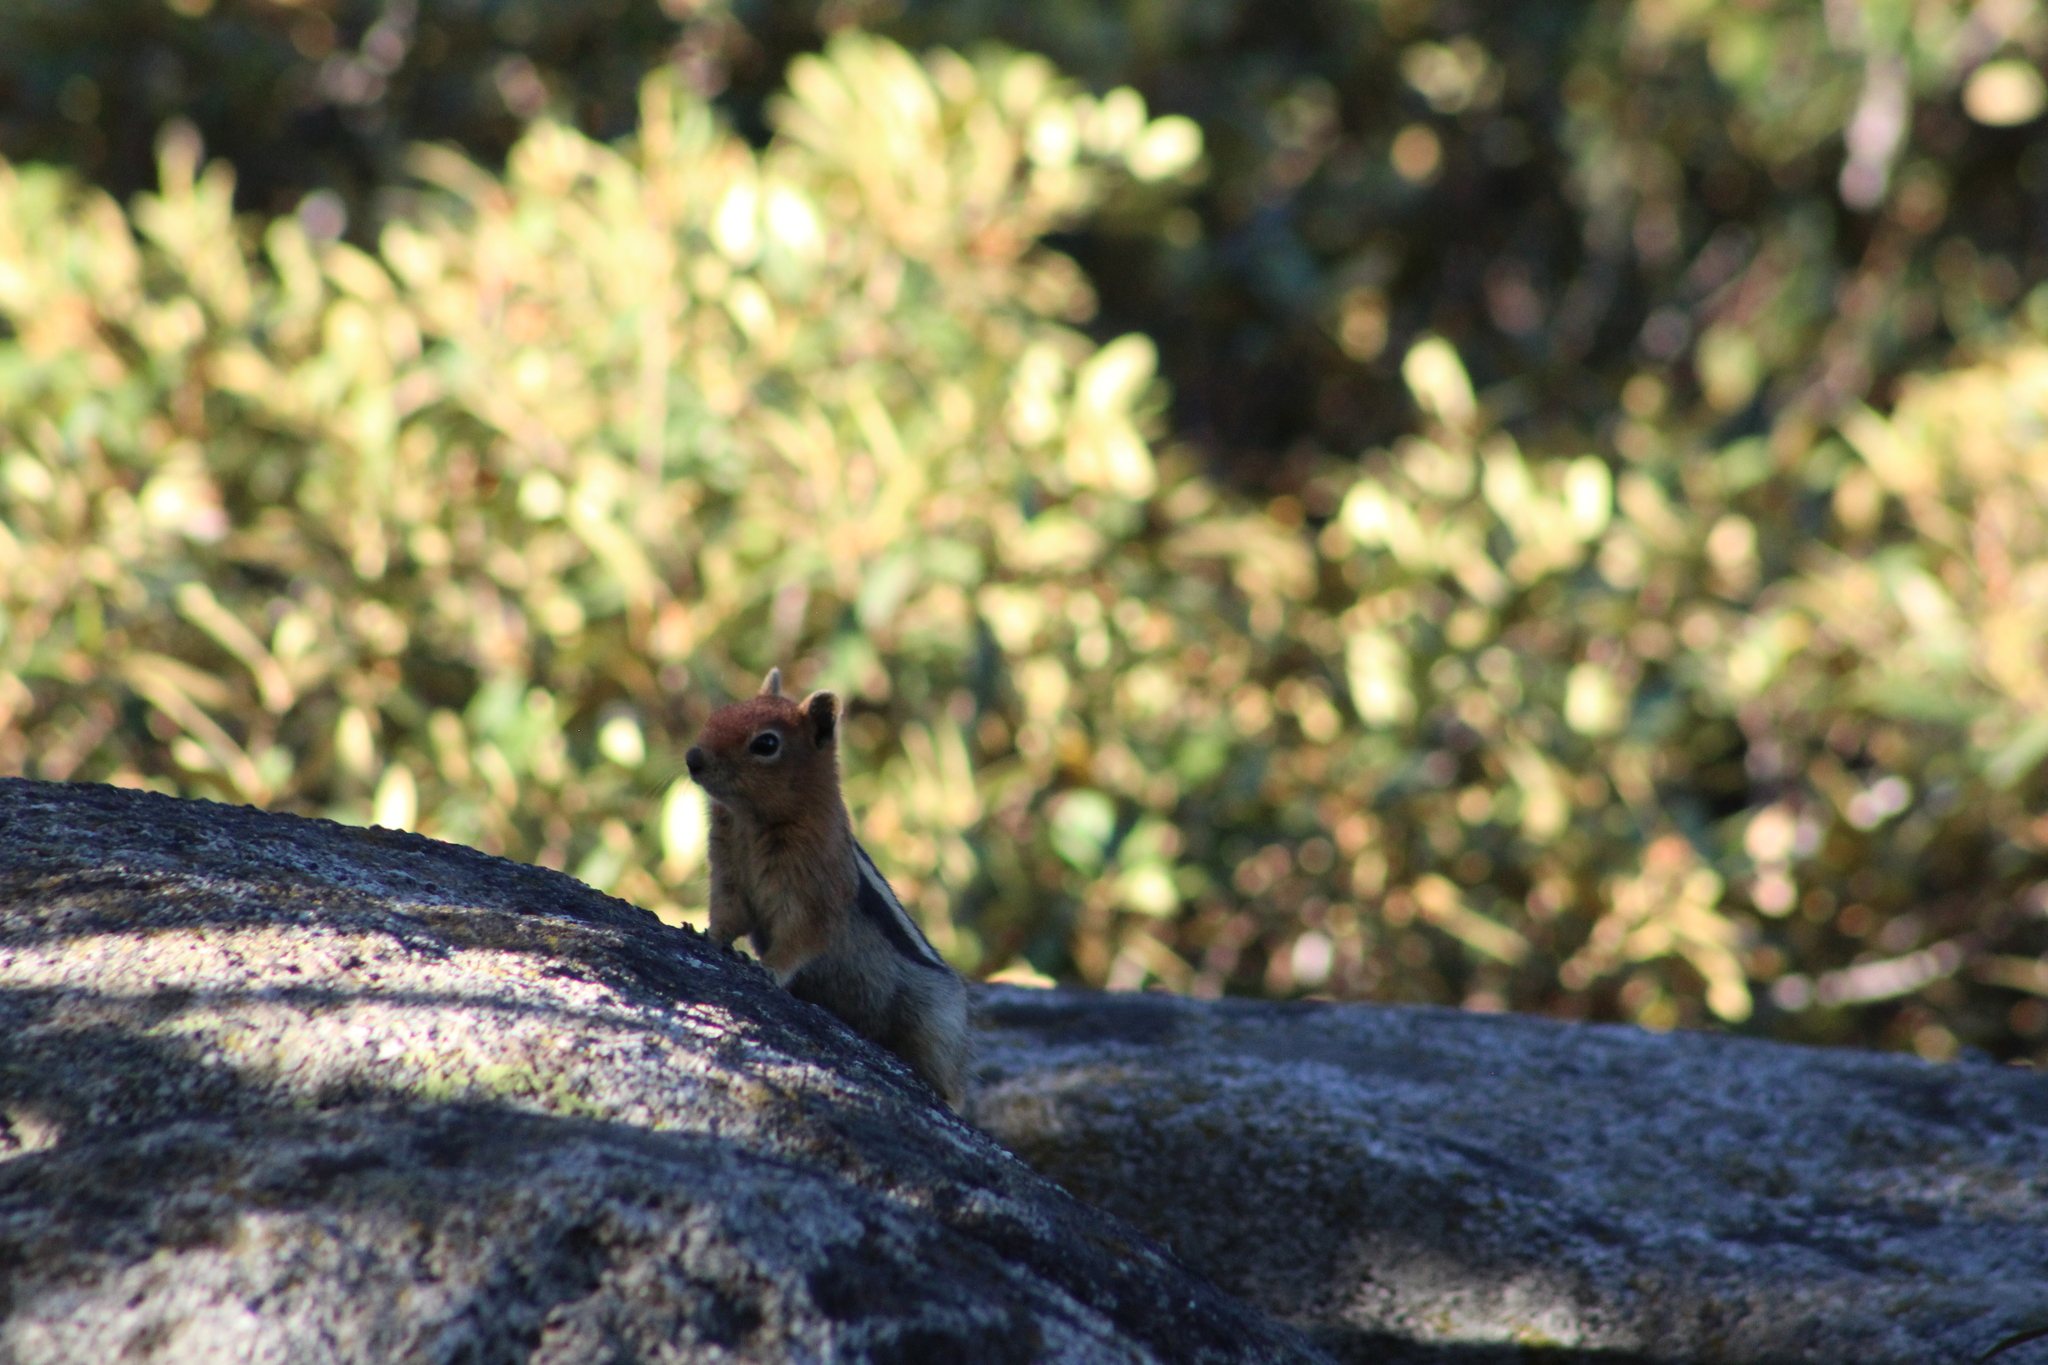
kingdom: Animalia
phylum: Chordata
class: Mammalia
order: Rodentia
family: Sciuridae
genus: Callospermophilus
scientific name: Callospermophilus lateralis
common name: Golden-mantled ground squirrel
